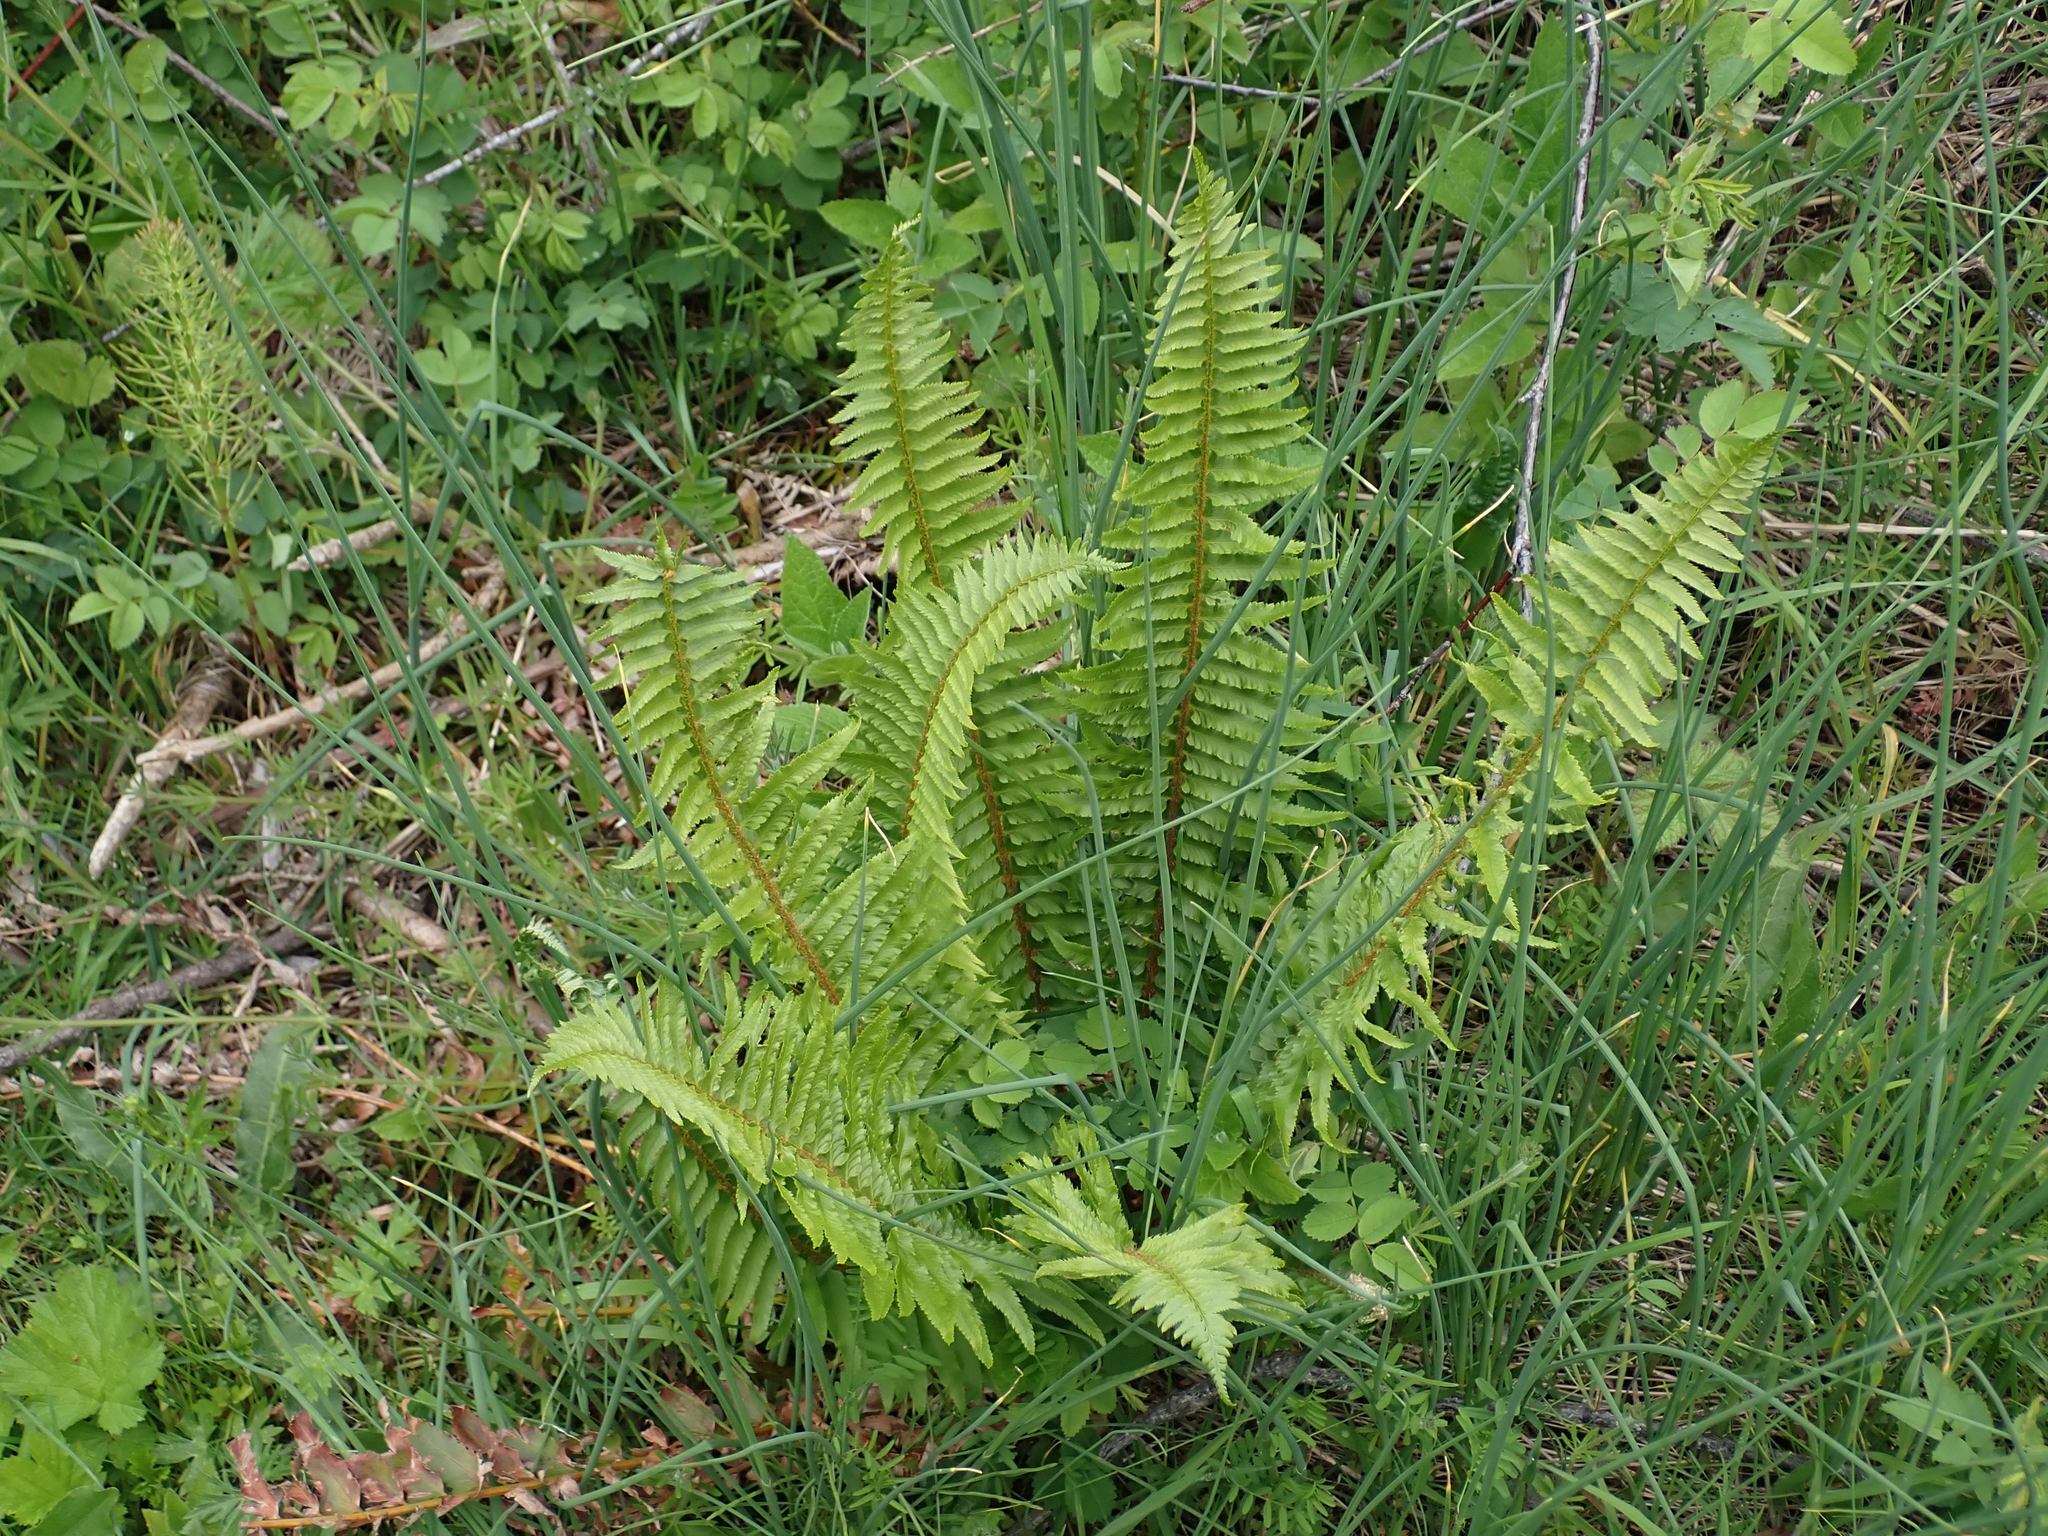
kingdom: Plantae
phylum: Tracheophyta
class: Polypodiopsida
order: Polypodiales
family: Dryopteridaceae
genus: Polystichum
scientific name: Polystichum munitum
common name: Western sword-fern
